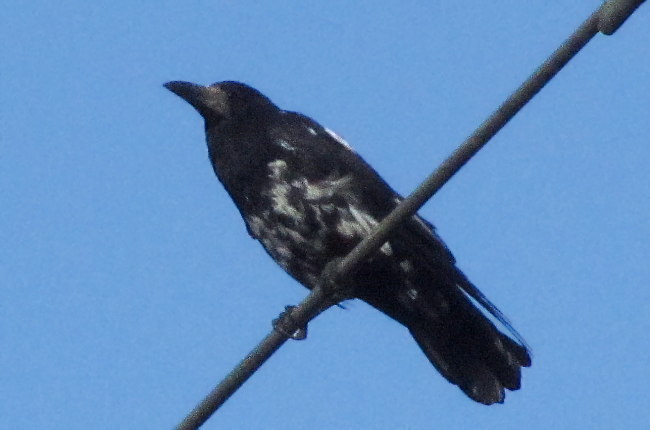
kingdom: Animalia
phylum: Chordata
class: Aves
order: Passeriformes
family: Corvidae
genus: Corvus
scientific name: Corvus frugilegus
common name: Rook
